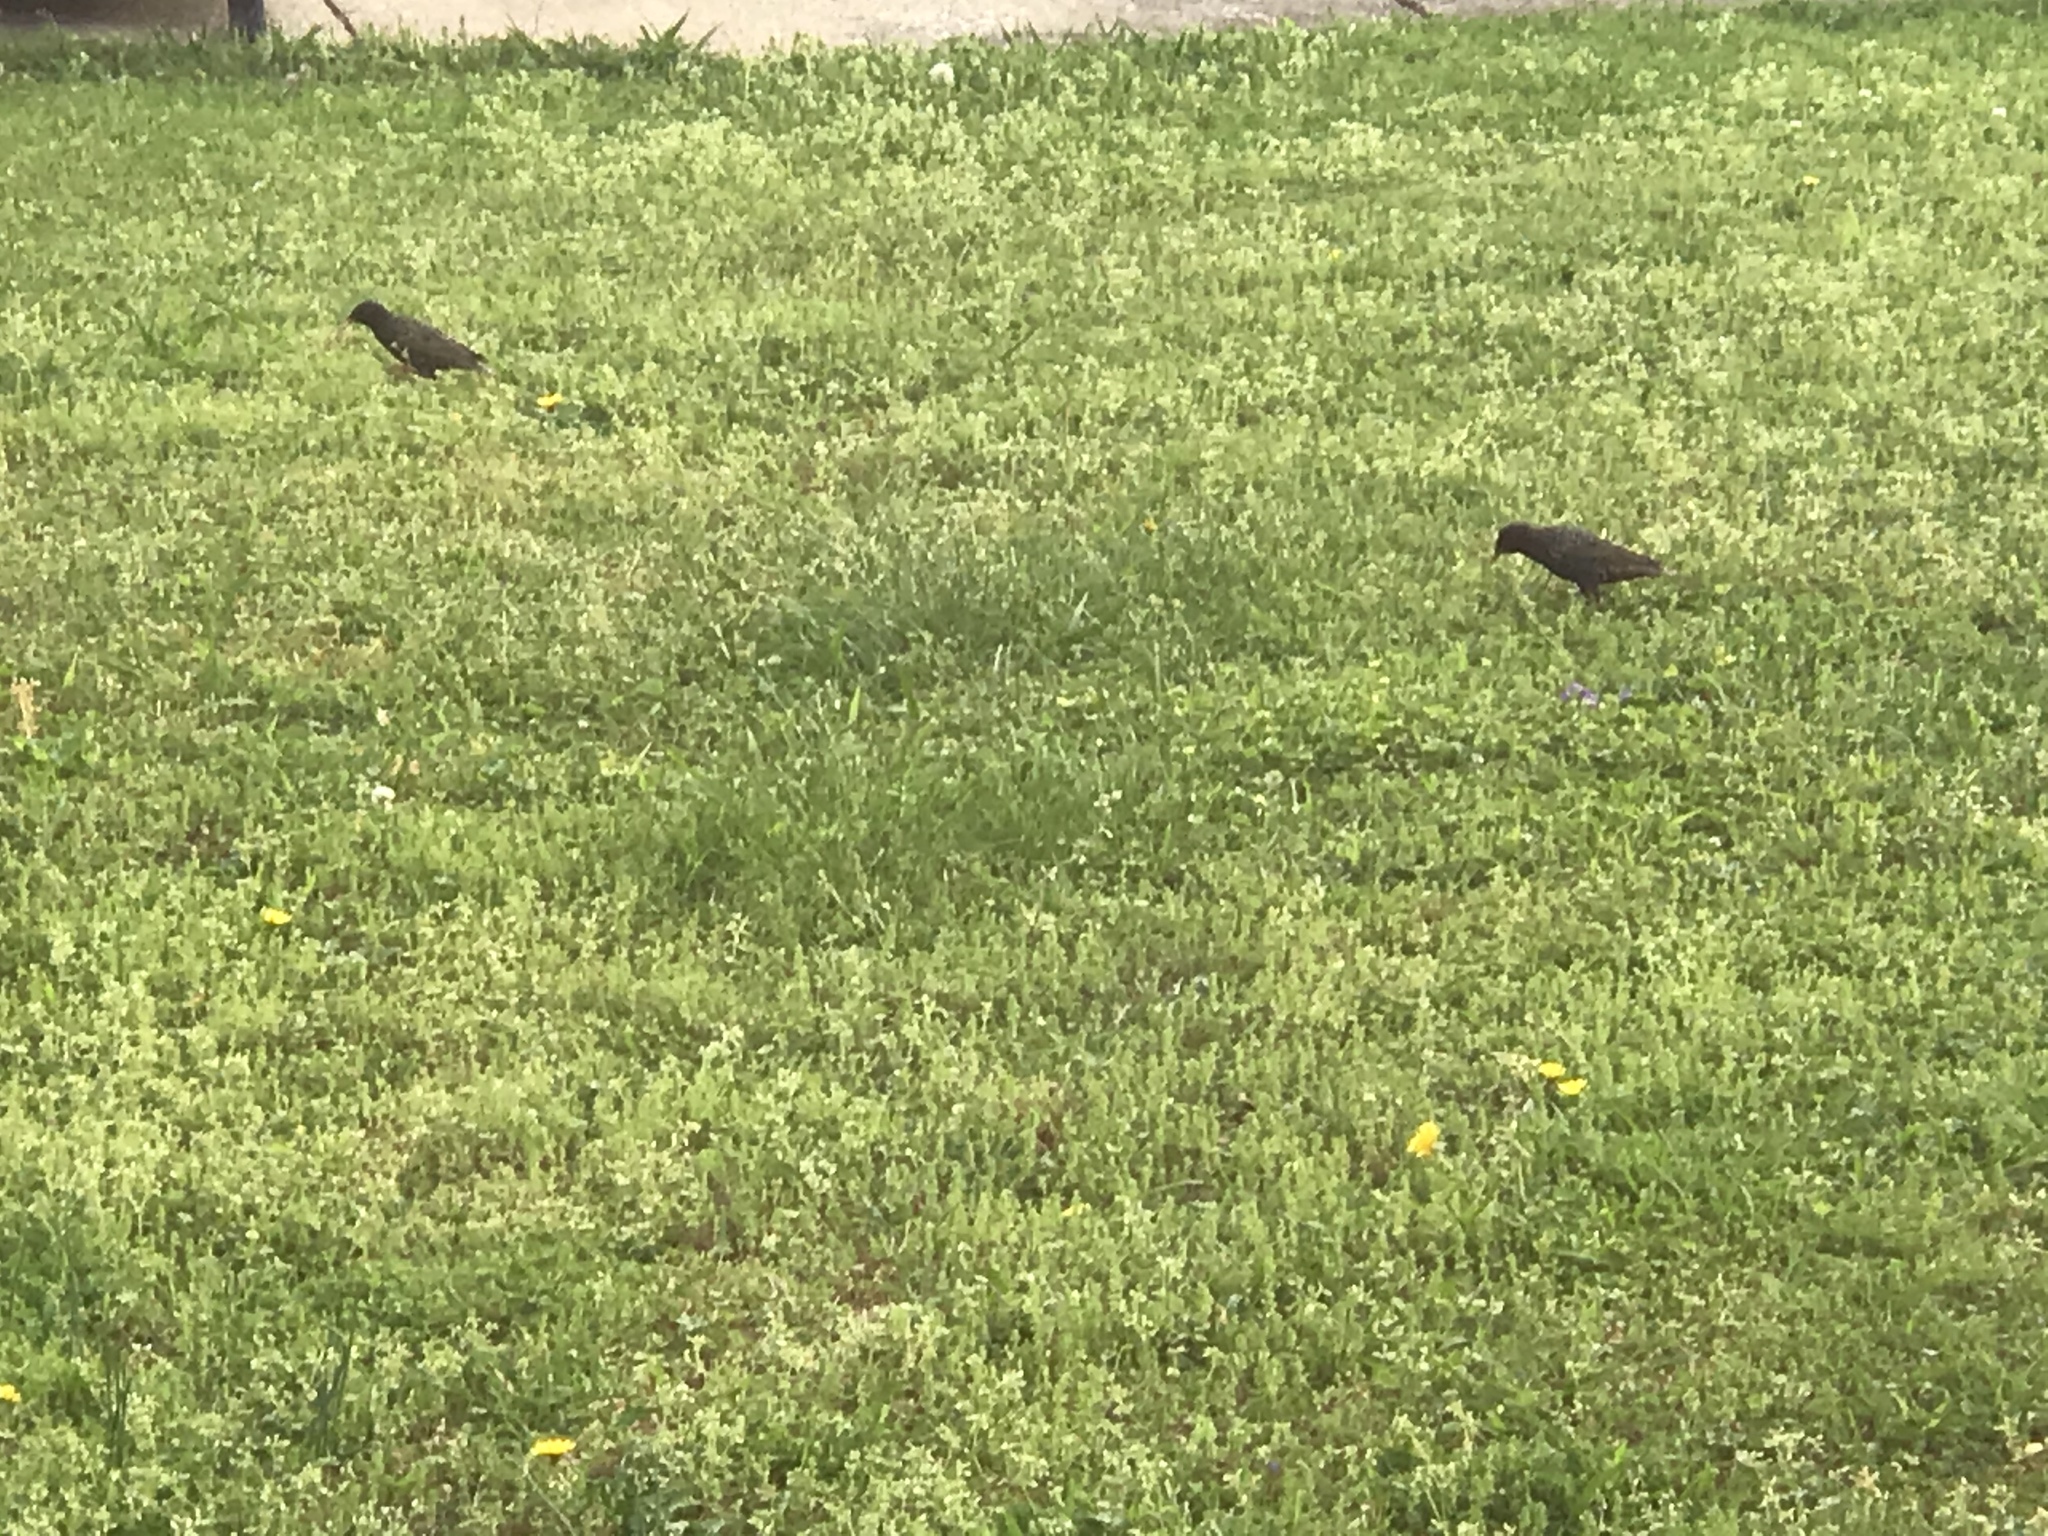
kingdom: Animalia
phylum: Chordata
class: Aves
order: Passeriformes
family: Sturnidae
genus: Sturnus
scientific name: Sturnus vulgaris
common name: Common starling
